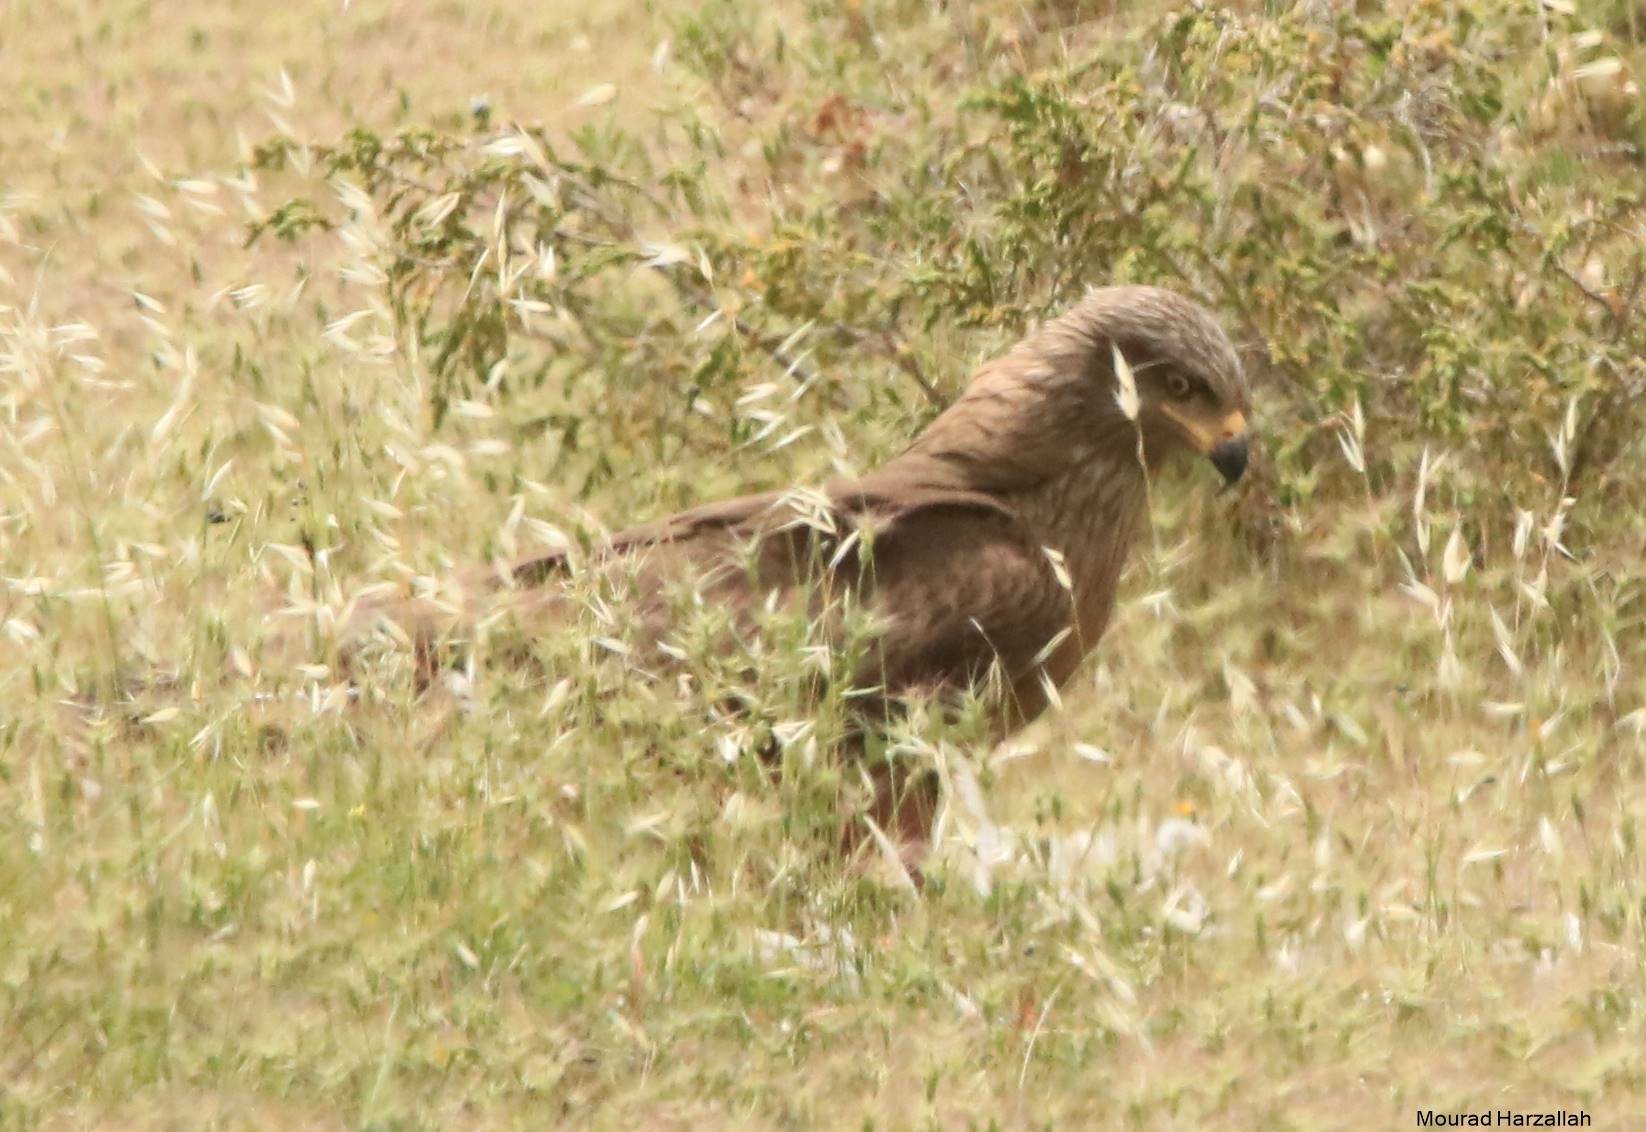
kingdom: Animalia
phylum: Chordata
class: Aves
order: Accipitriformes
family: Accipitridae
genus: Milvus
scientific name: Milvus migrans
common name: Black kite
